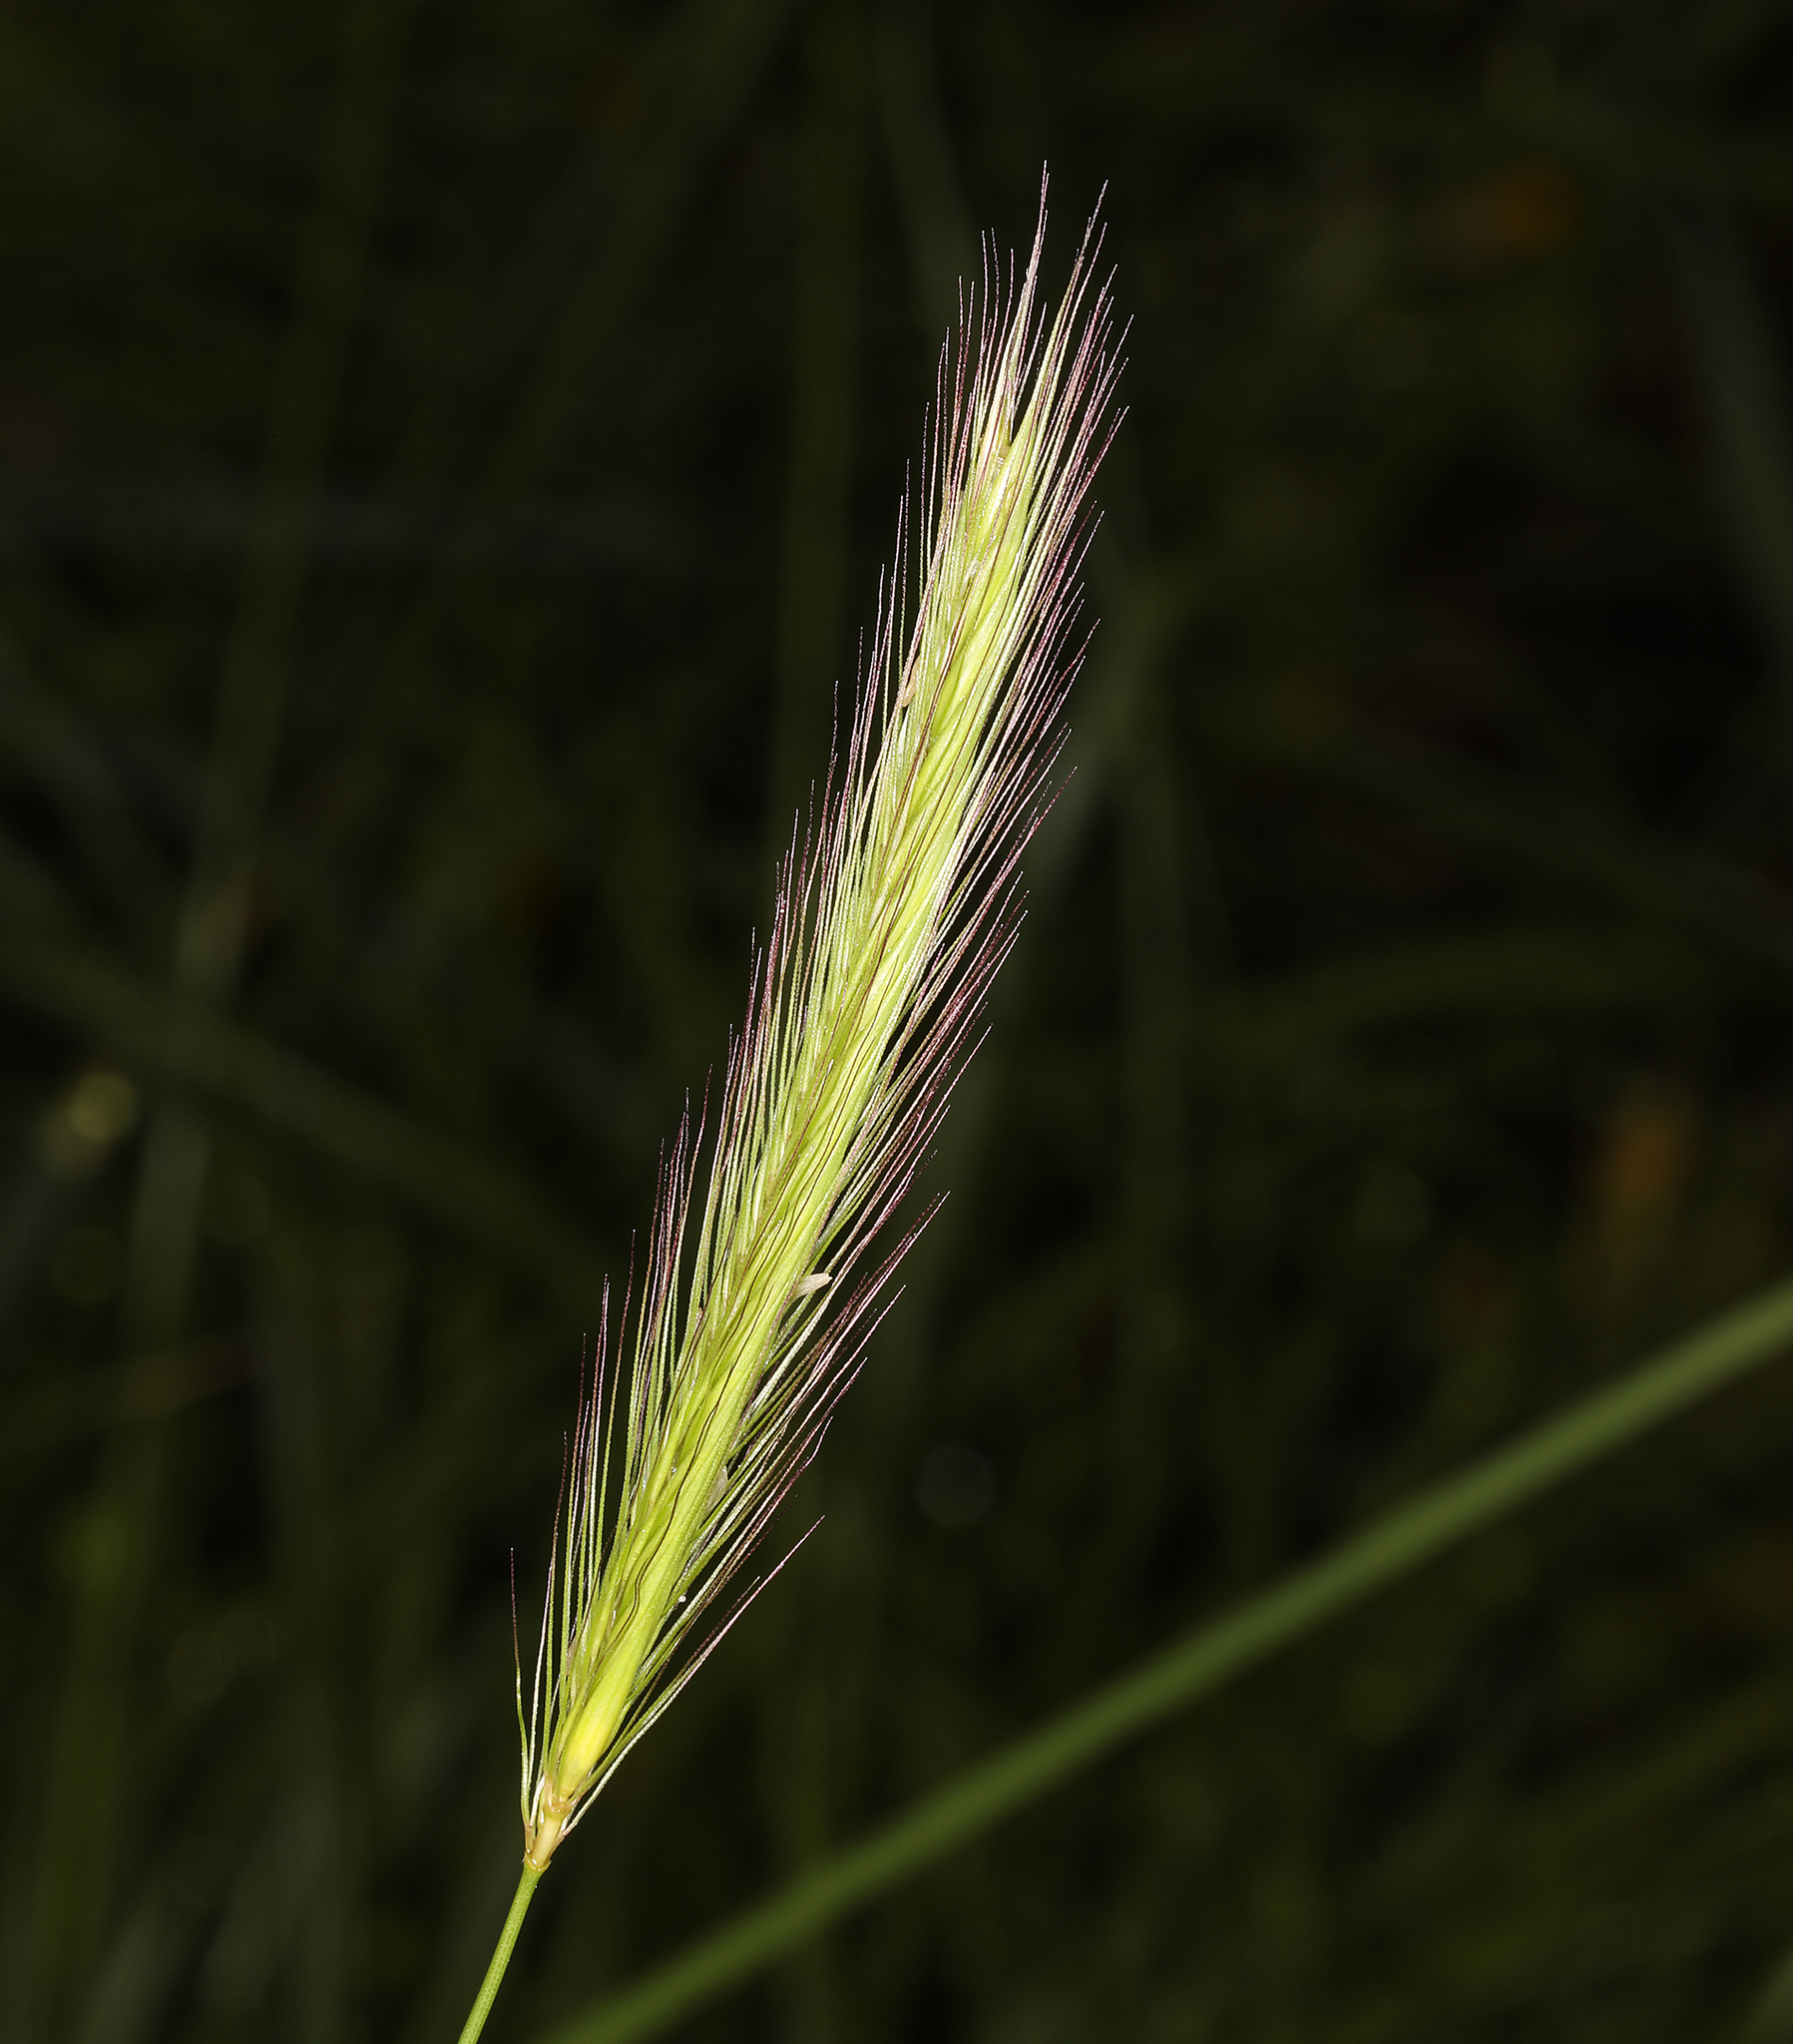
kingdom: Plantae
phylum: Tracheophyta
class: Liliopsida
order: Poales
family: Poaceae
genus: Hordeum
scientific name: Hordeum brachyantherum
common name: Meadow barley
